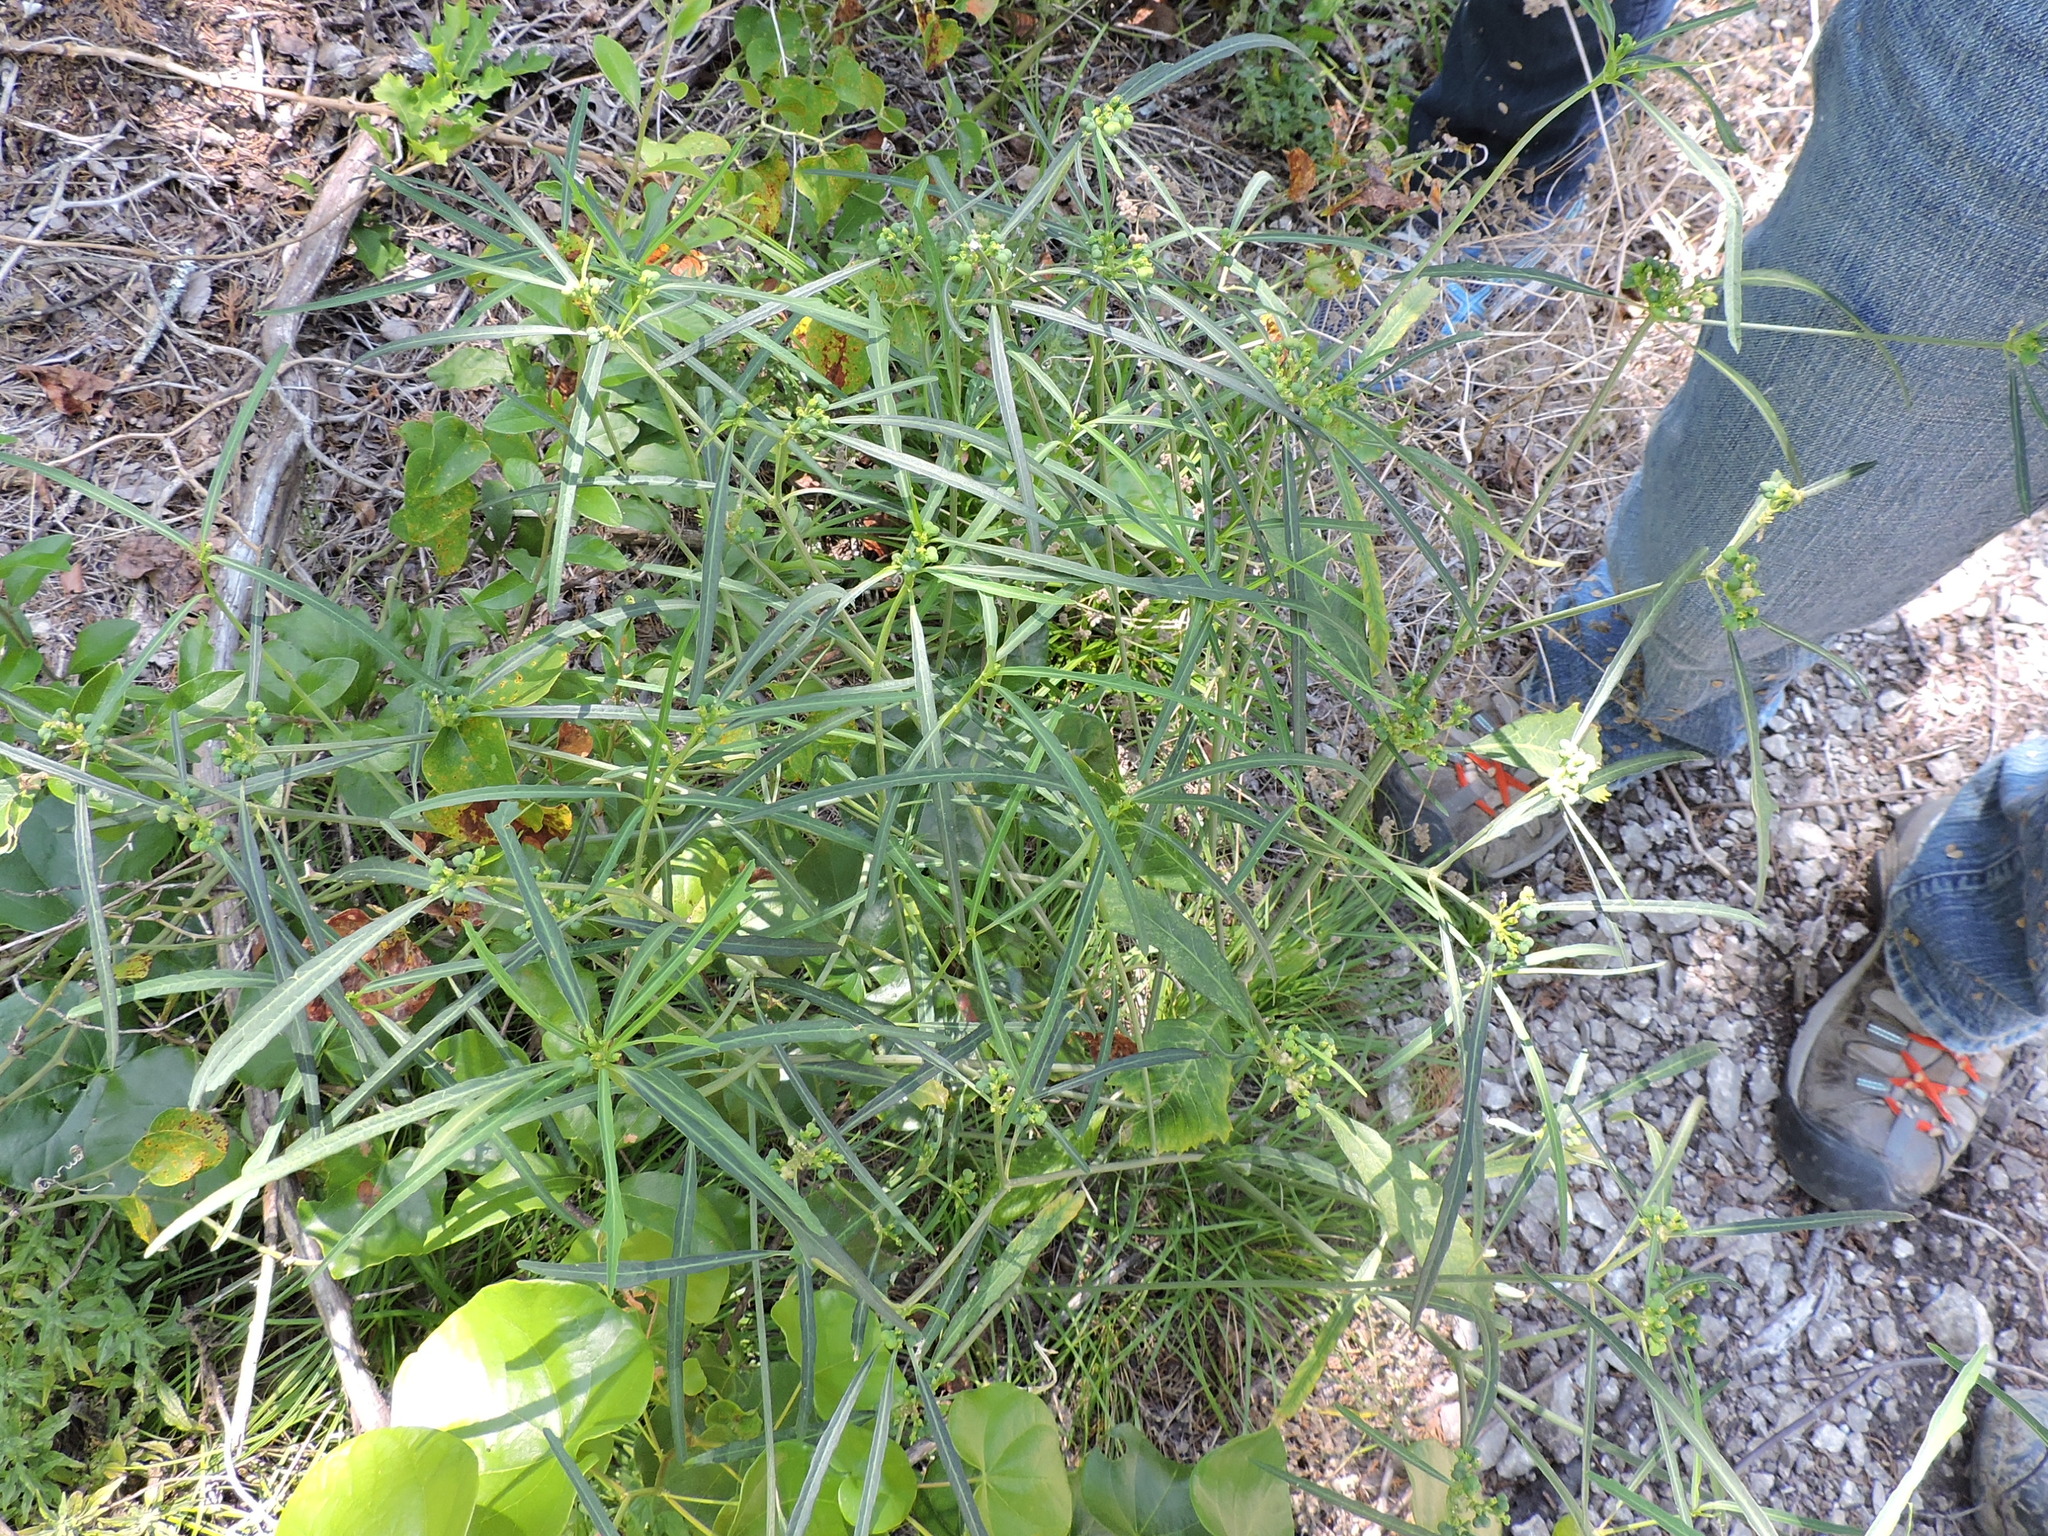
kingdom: Plantae
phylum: Tracheophyta
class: Magnoliopsida
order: Malpighiales
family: Euphorbiaceae
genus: Euphorbia
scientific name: Euphorbia heterophylla
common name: Mexican fireplant
